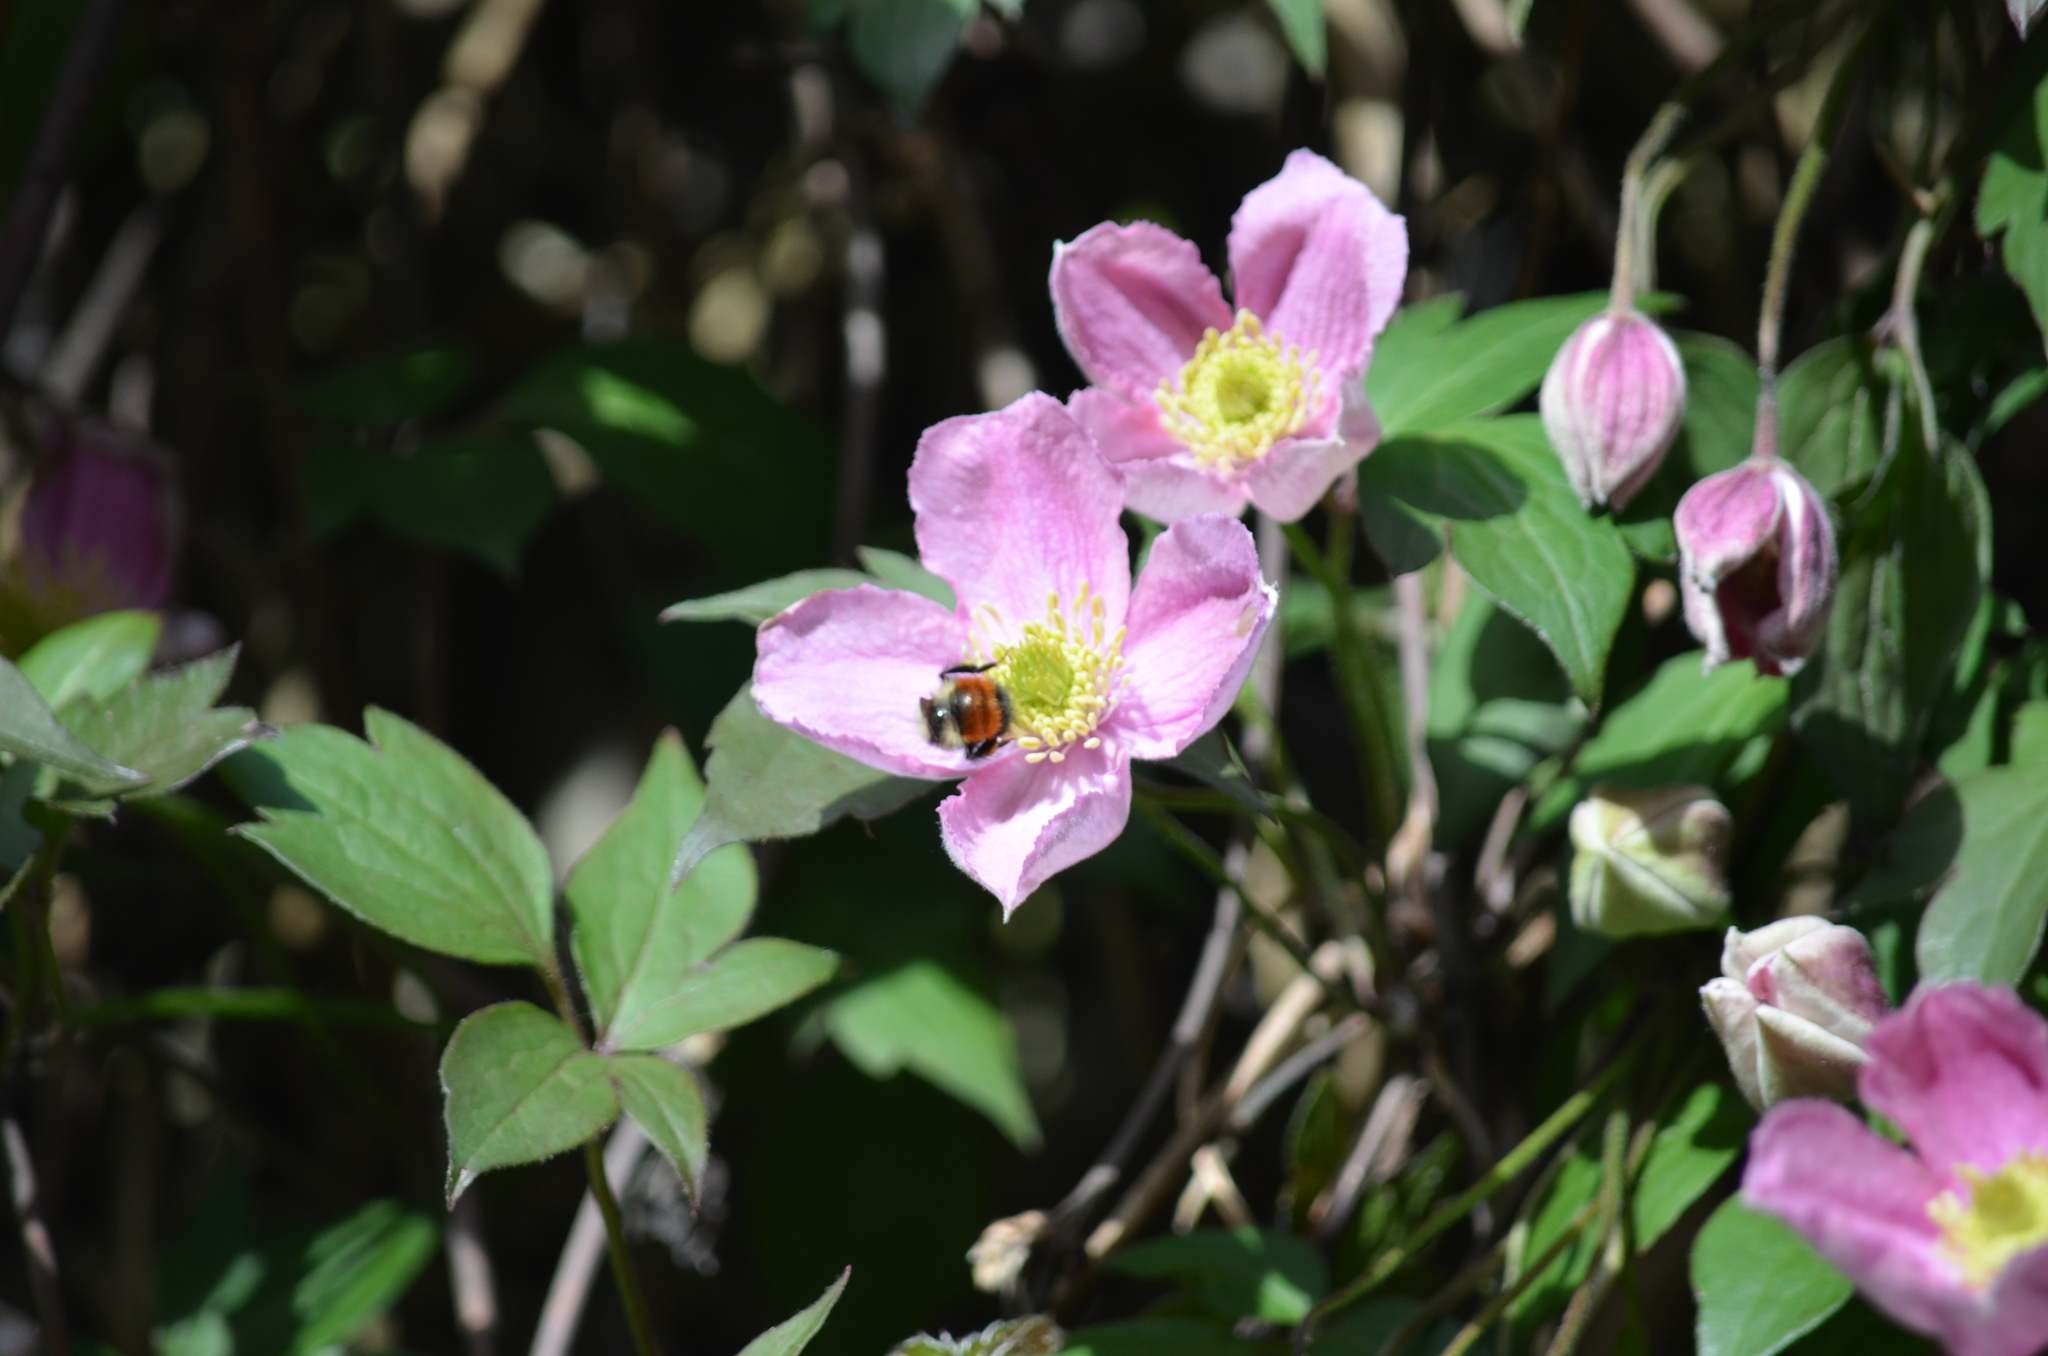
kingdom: Animalia
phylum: Arthropoda
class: Insecta
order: Hymenoptera
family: Apidae
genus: Bombus
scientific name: Bombus melanopygus
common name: Black tail bumble bee
